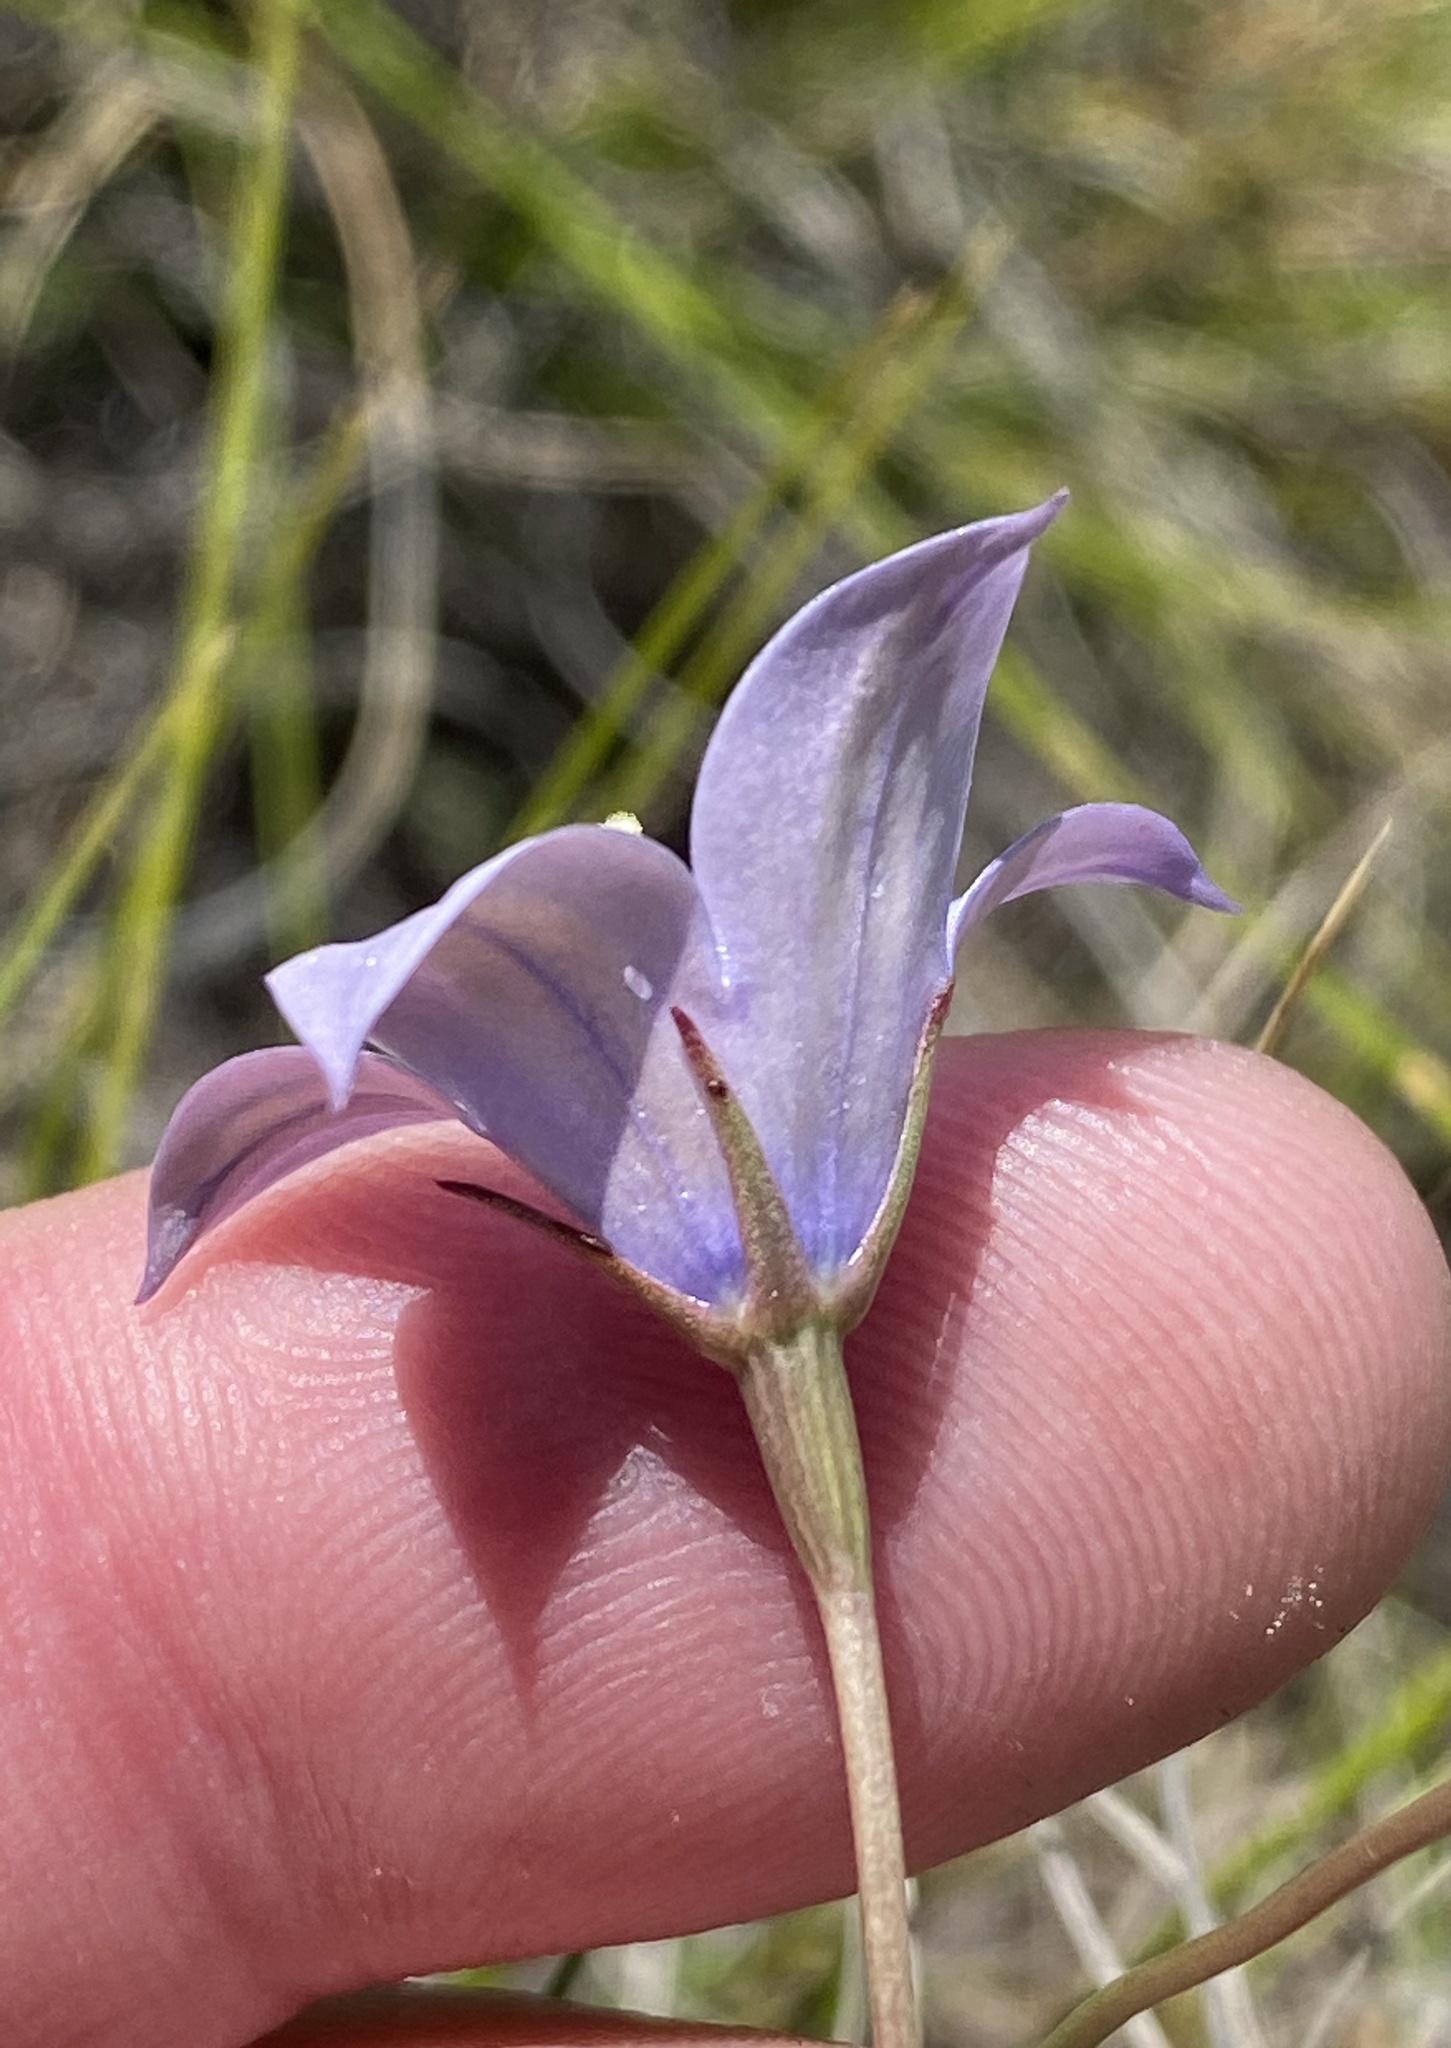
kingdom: Plantae
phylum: Tracheophyta
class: Magnoliopsida
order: Asterales
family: Campanulaceae
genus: Wahlenbergia
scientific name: Wahlenbergia undulata
